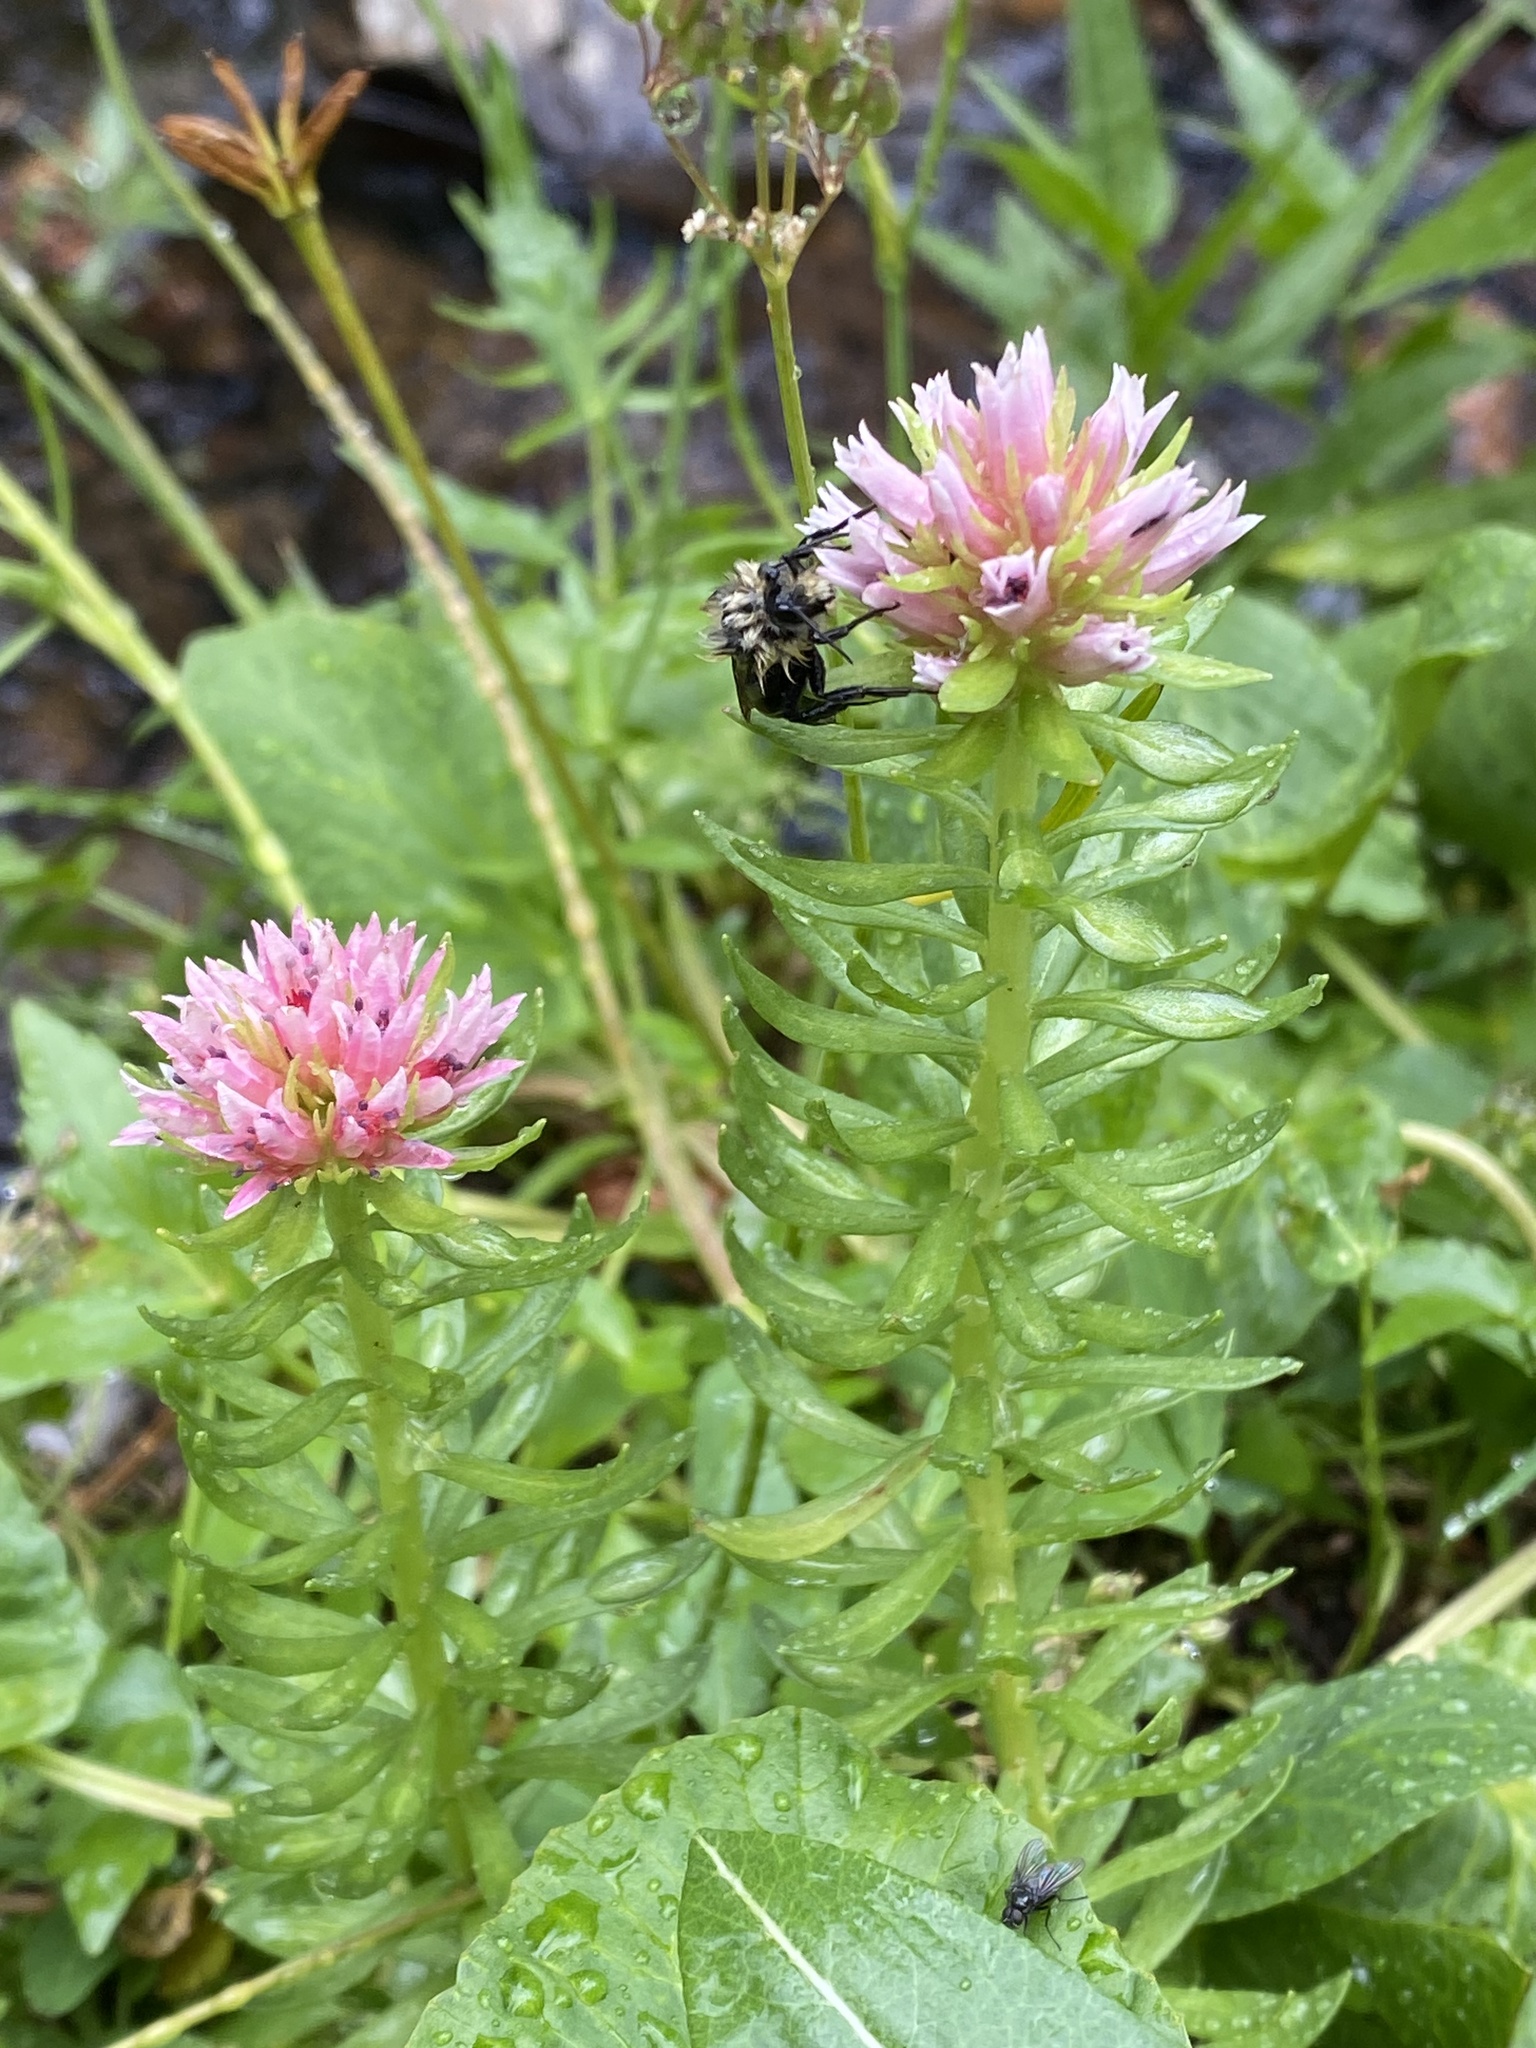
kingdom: Plantae
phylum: Tracheophyta
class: Magnoliopsida
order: Saxifragales
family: Crassulaceae
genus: Rhodiola
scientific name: Rhodiola rhodantha
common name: Red orpine
